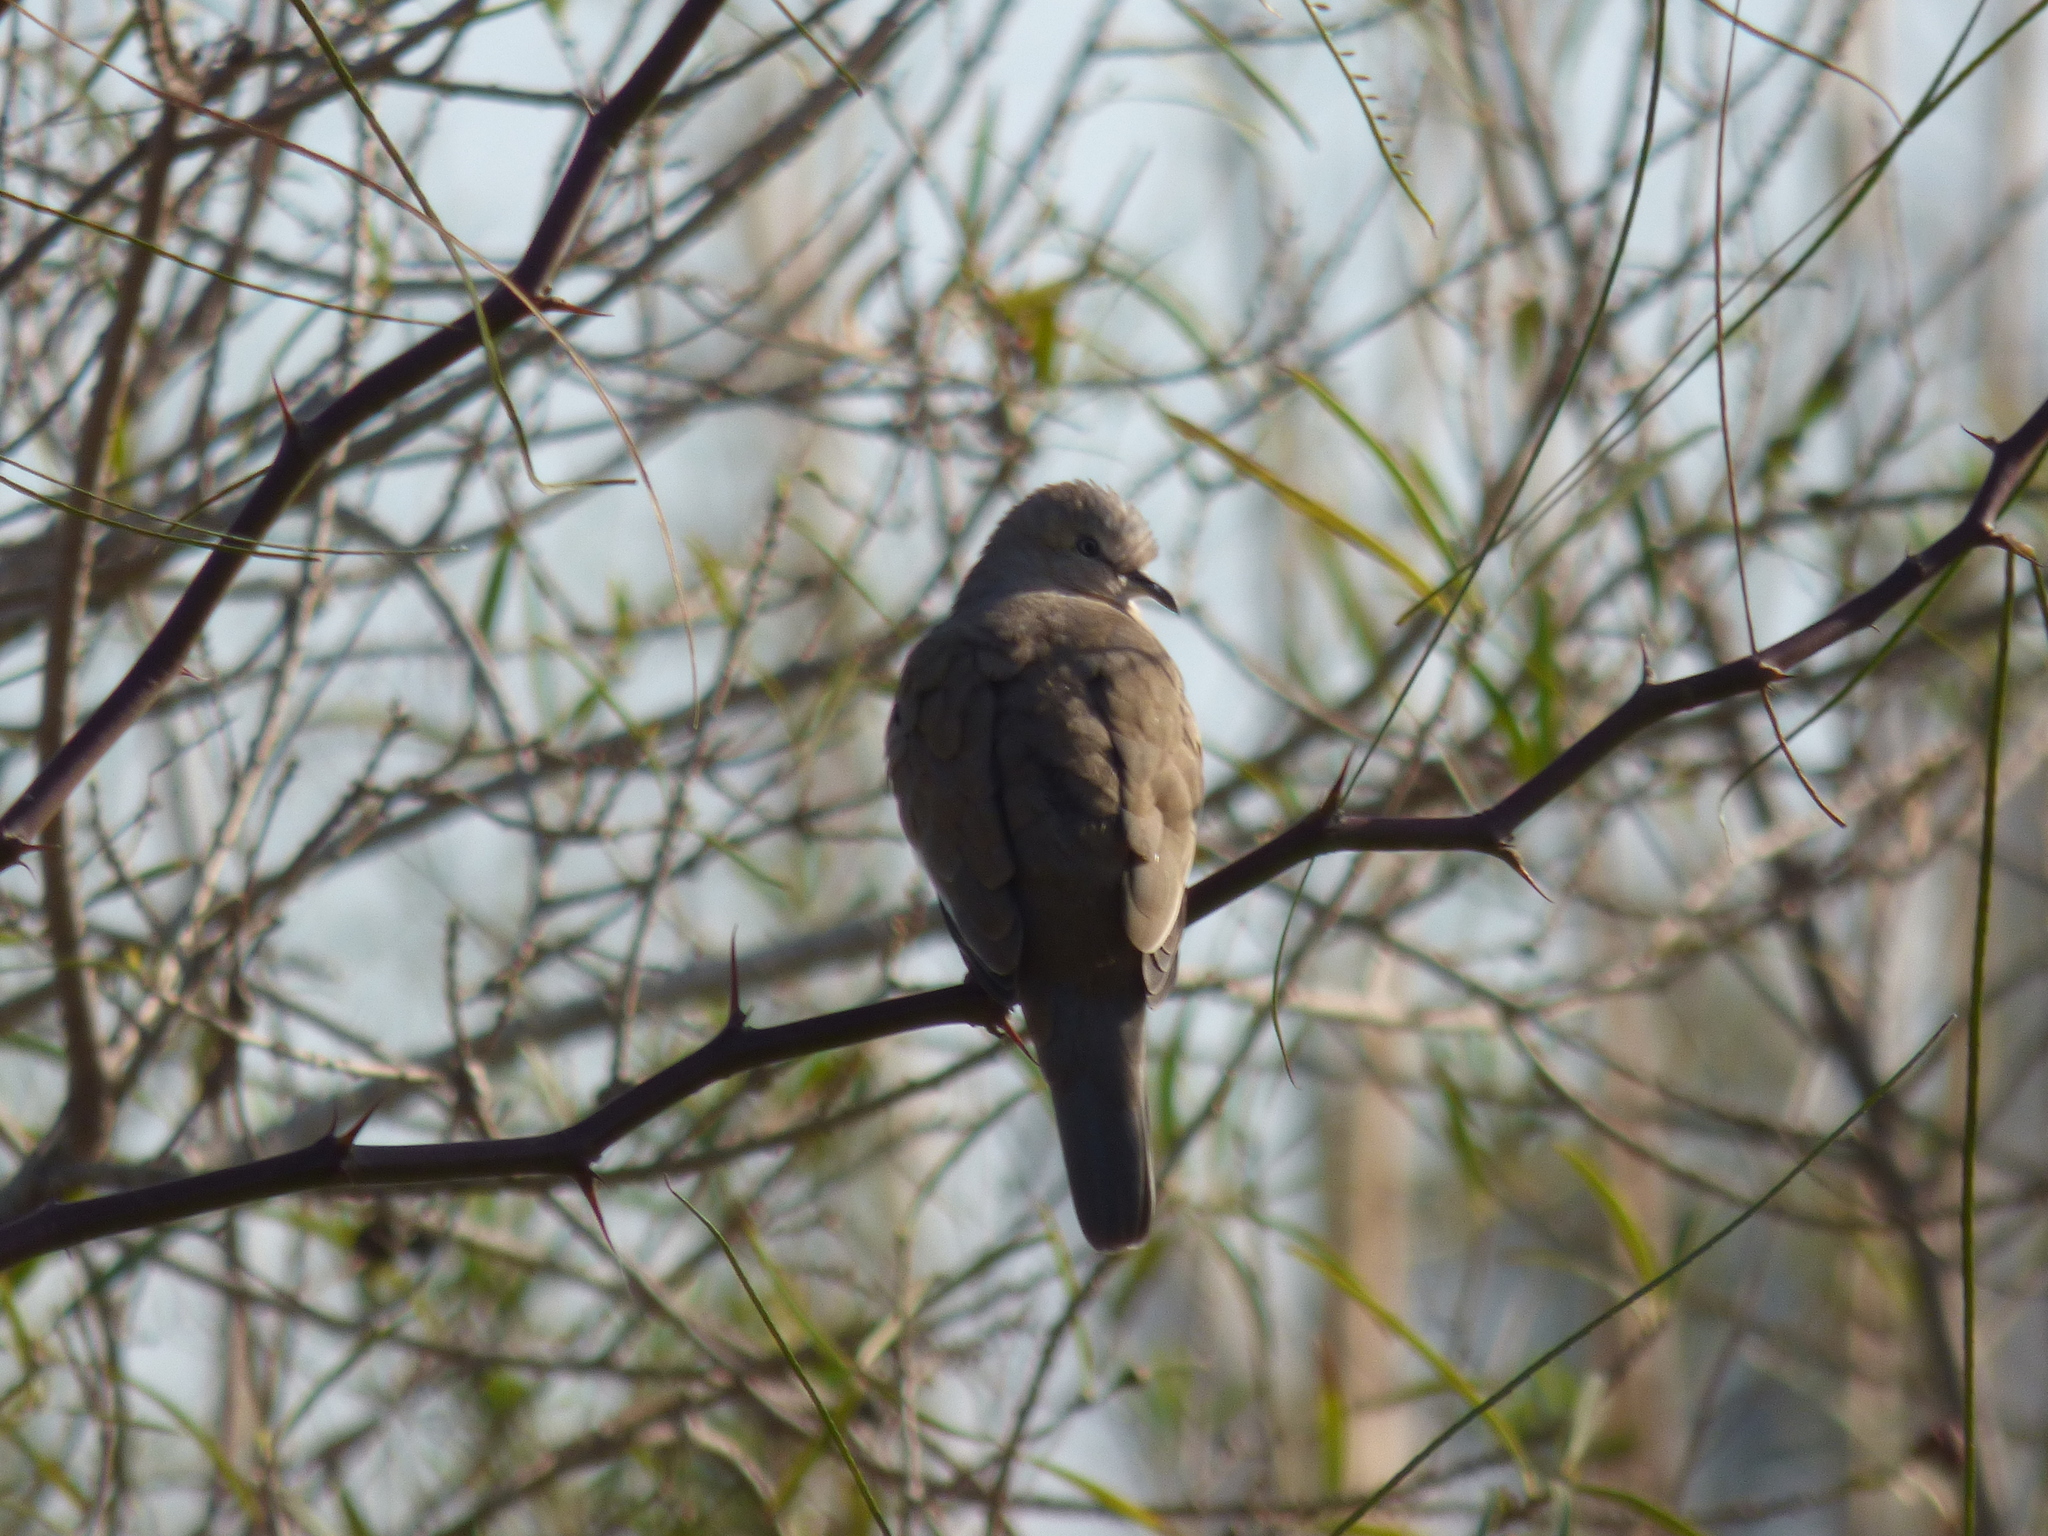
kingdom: Animalia
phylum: Chordata
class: Aves
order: Columbiformes
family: Columbidae
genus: Columbina
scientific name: Columbina picui
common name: Picui ground dove
